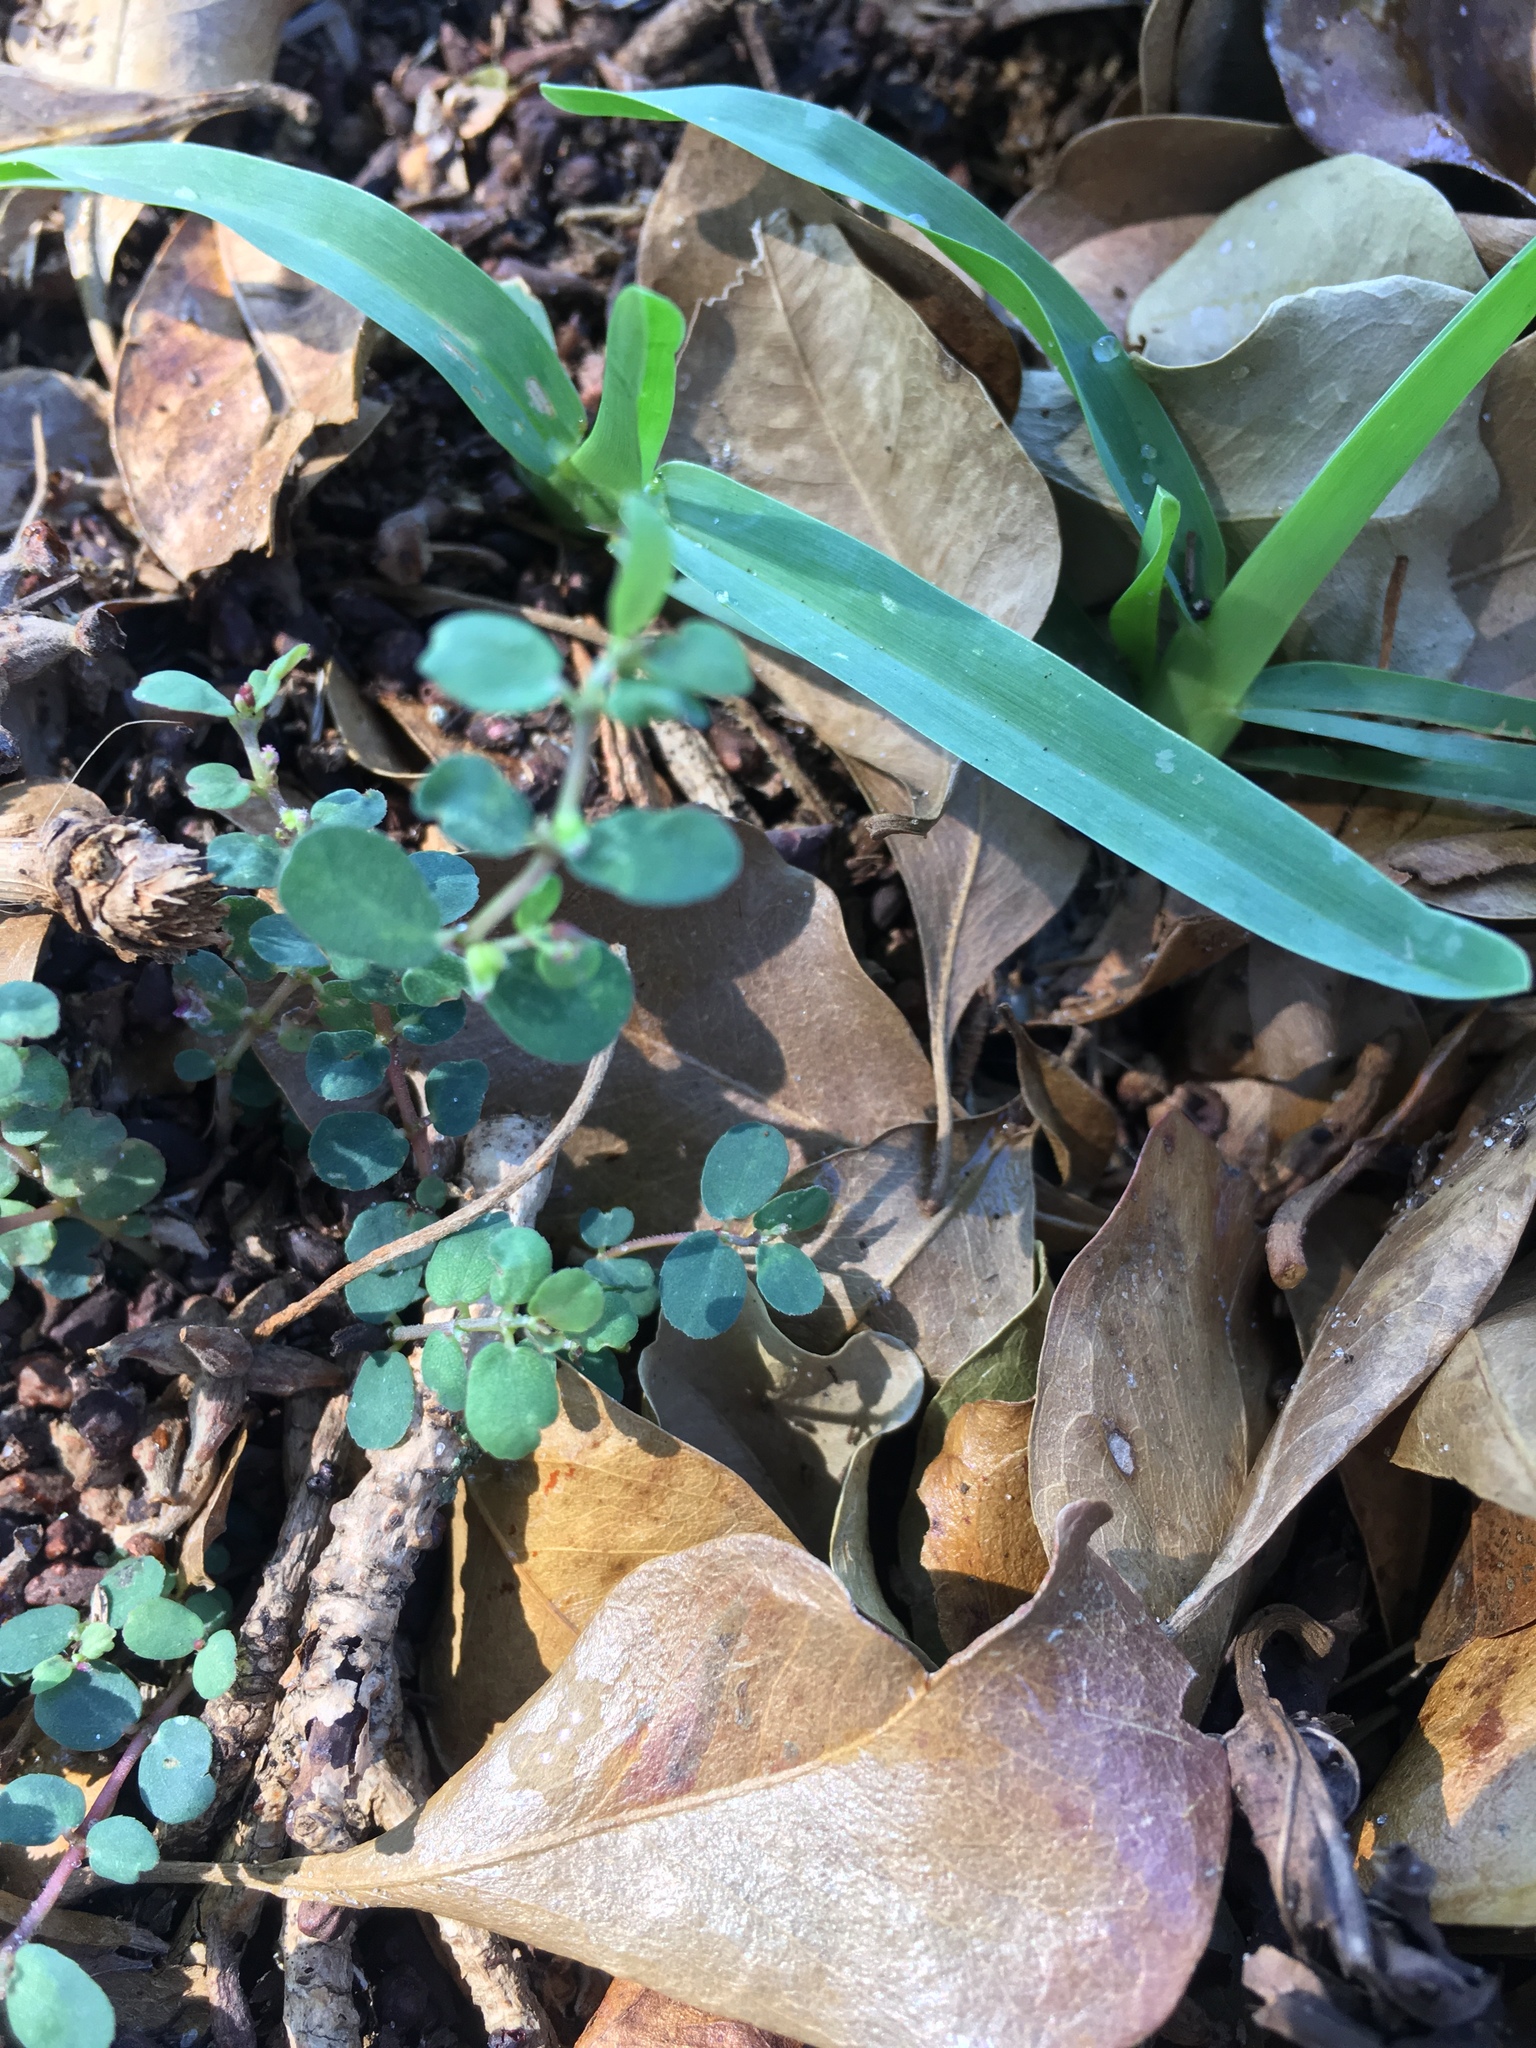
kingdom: Plantae
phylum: Tracheophyta
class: Magnoliopsida
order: Malpighiales
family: Euphorbiaceae
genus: Euphorbia
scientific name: Euphorbia prostrata
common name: Prostrate sandmat
